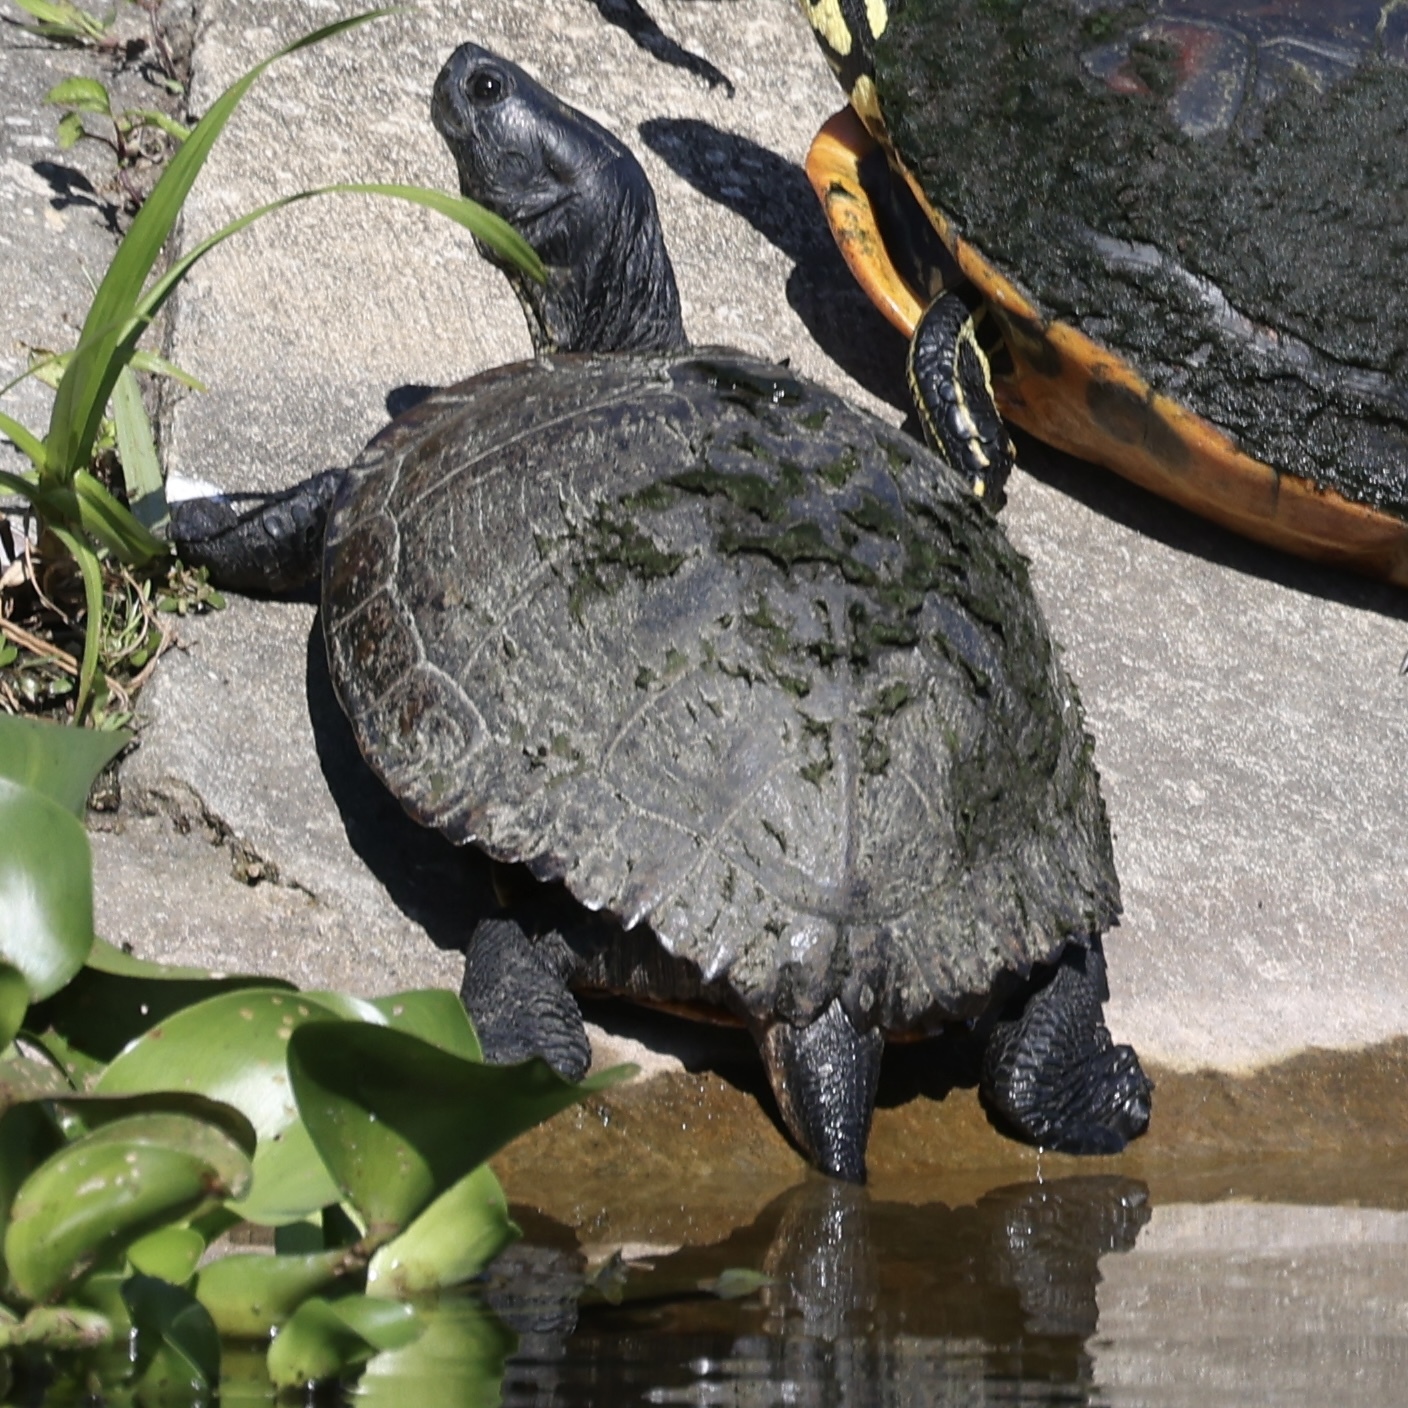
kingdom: Animalia
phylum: Chordata
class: Testudines
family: Emydidae
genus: Trachemys
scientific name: Trachemys scripta
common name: Slider
